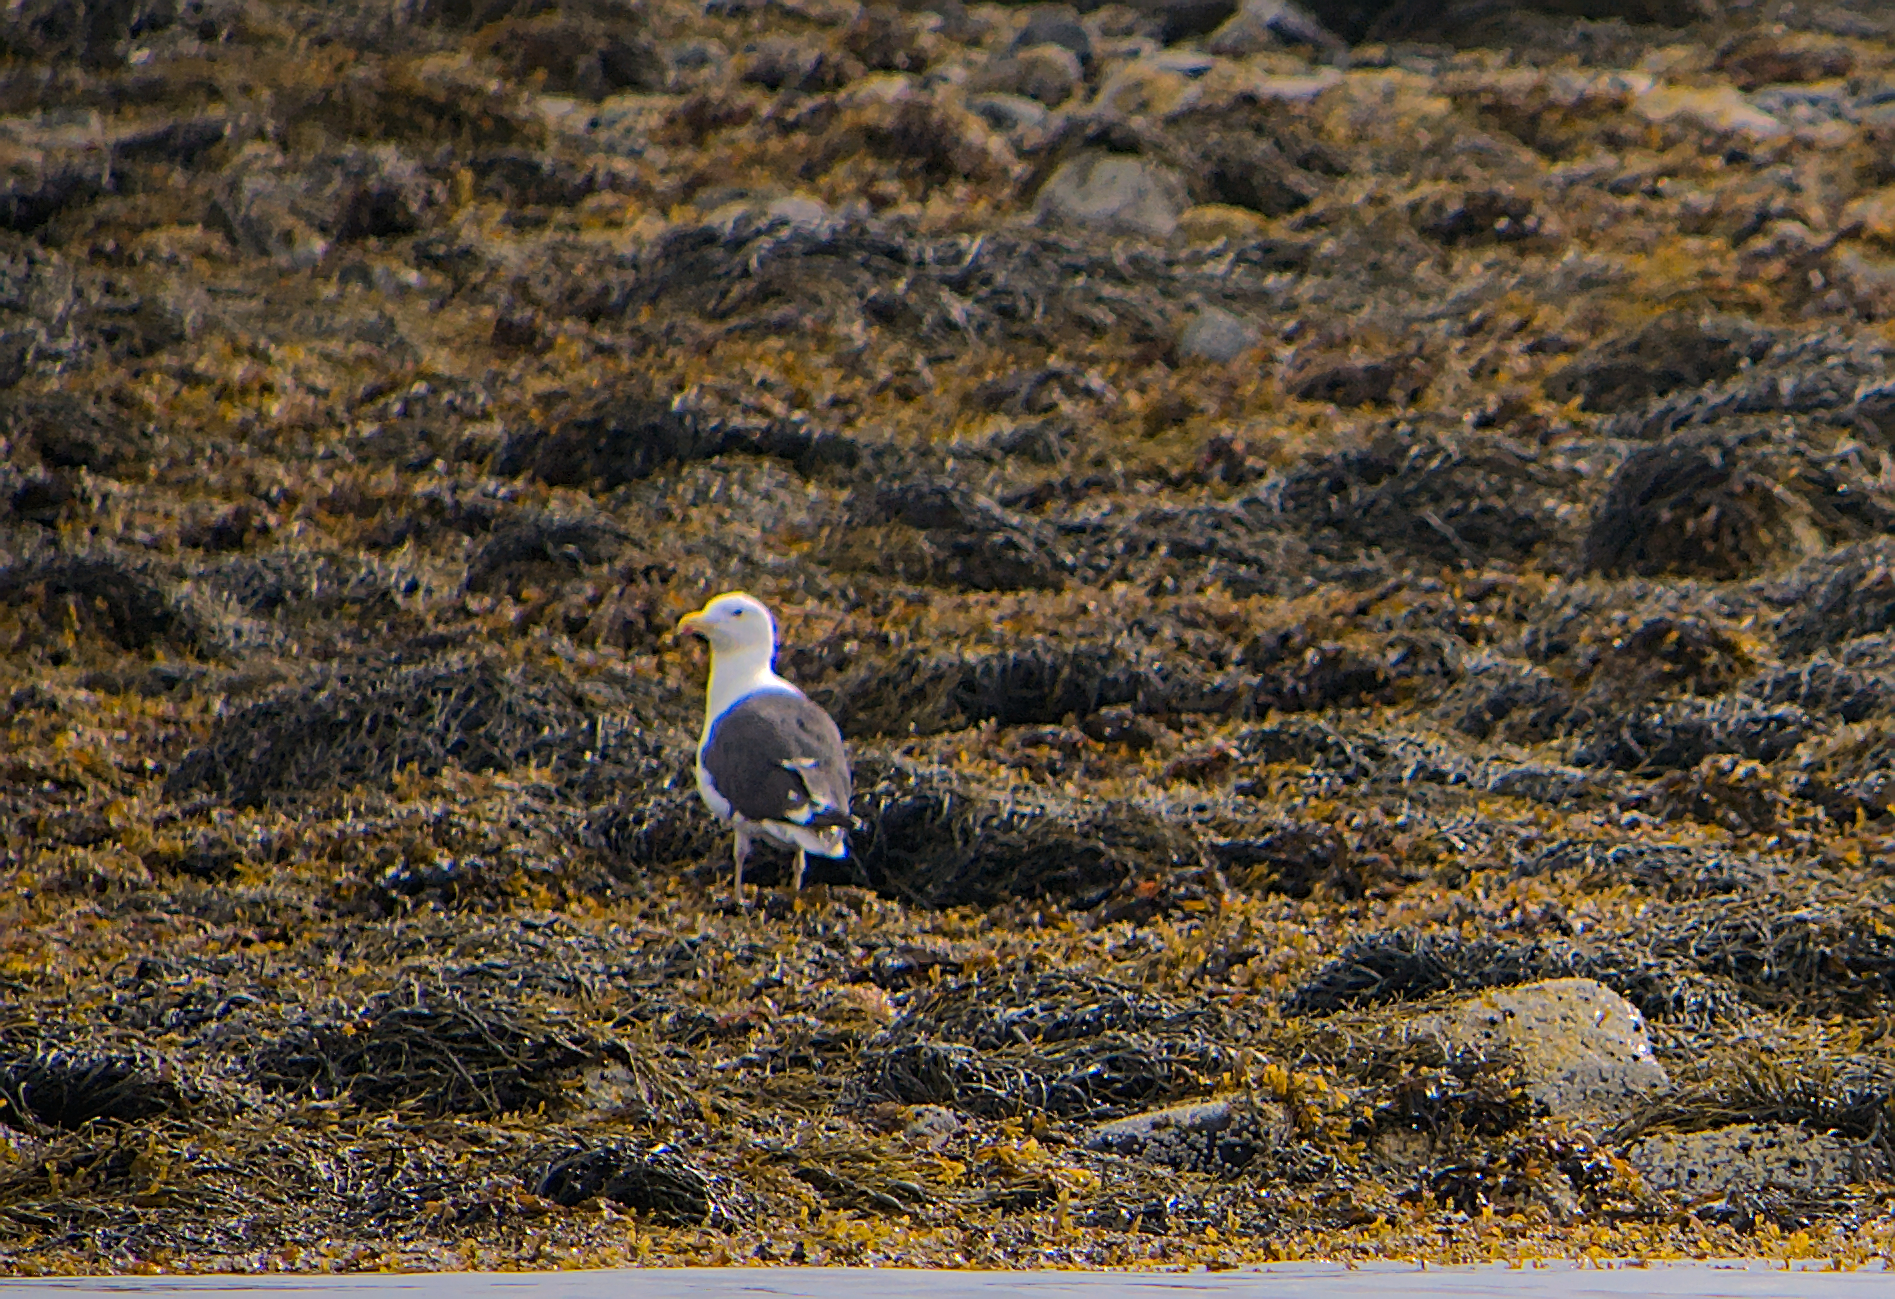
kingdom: Animalia
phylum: Chordata
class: Aves
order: Charadriiformes
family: Laridae
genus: Larus
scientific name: Larus marinus
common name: Great black-backed gull
